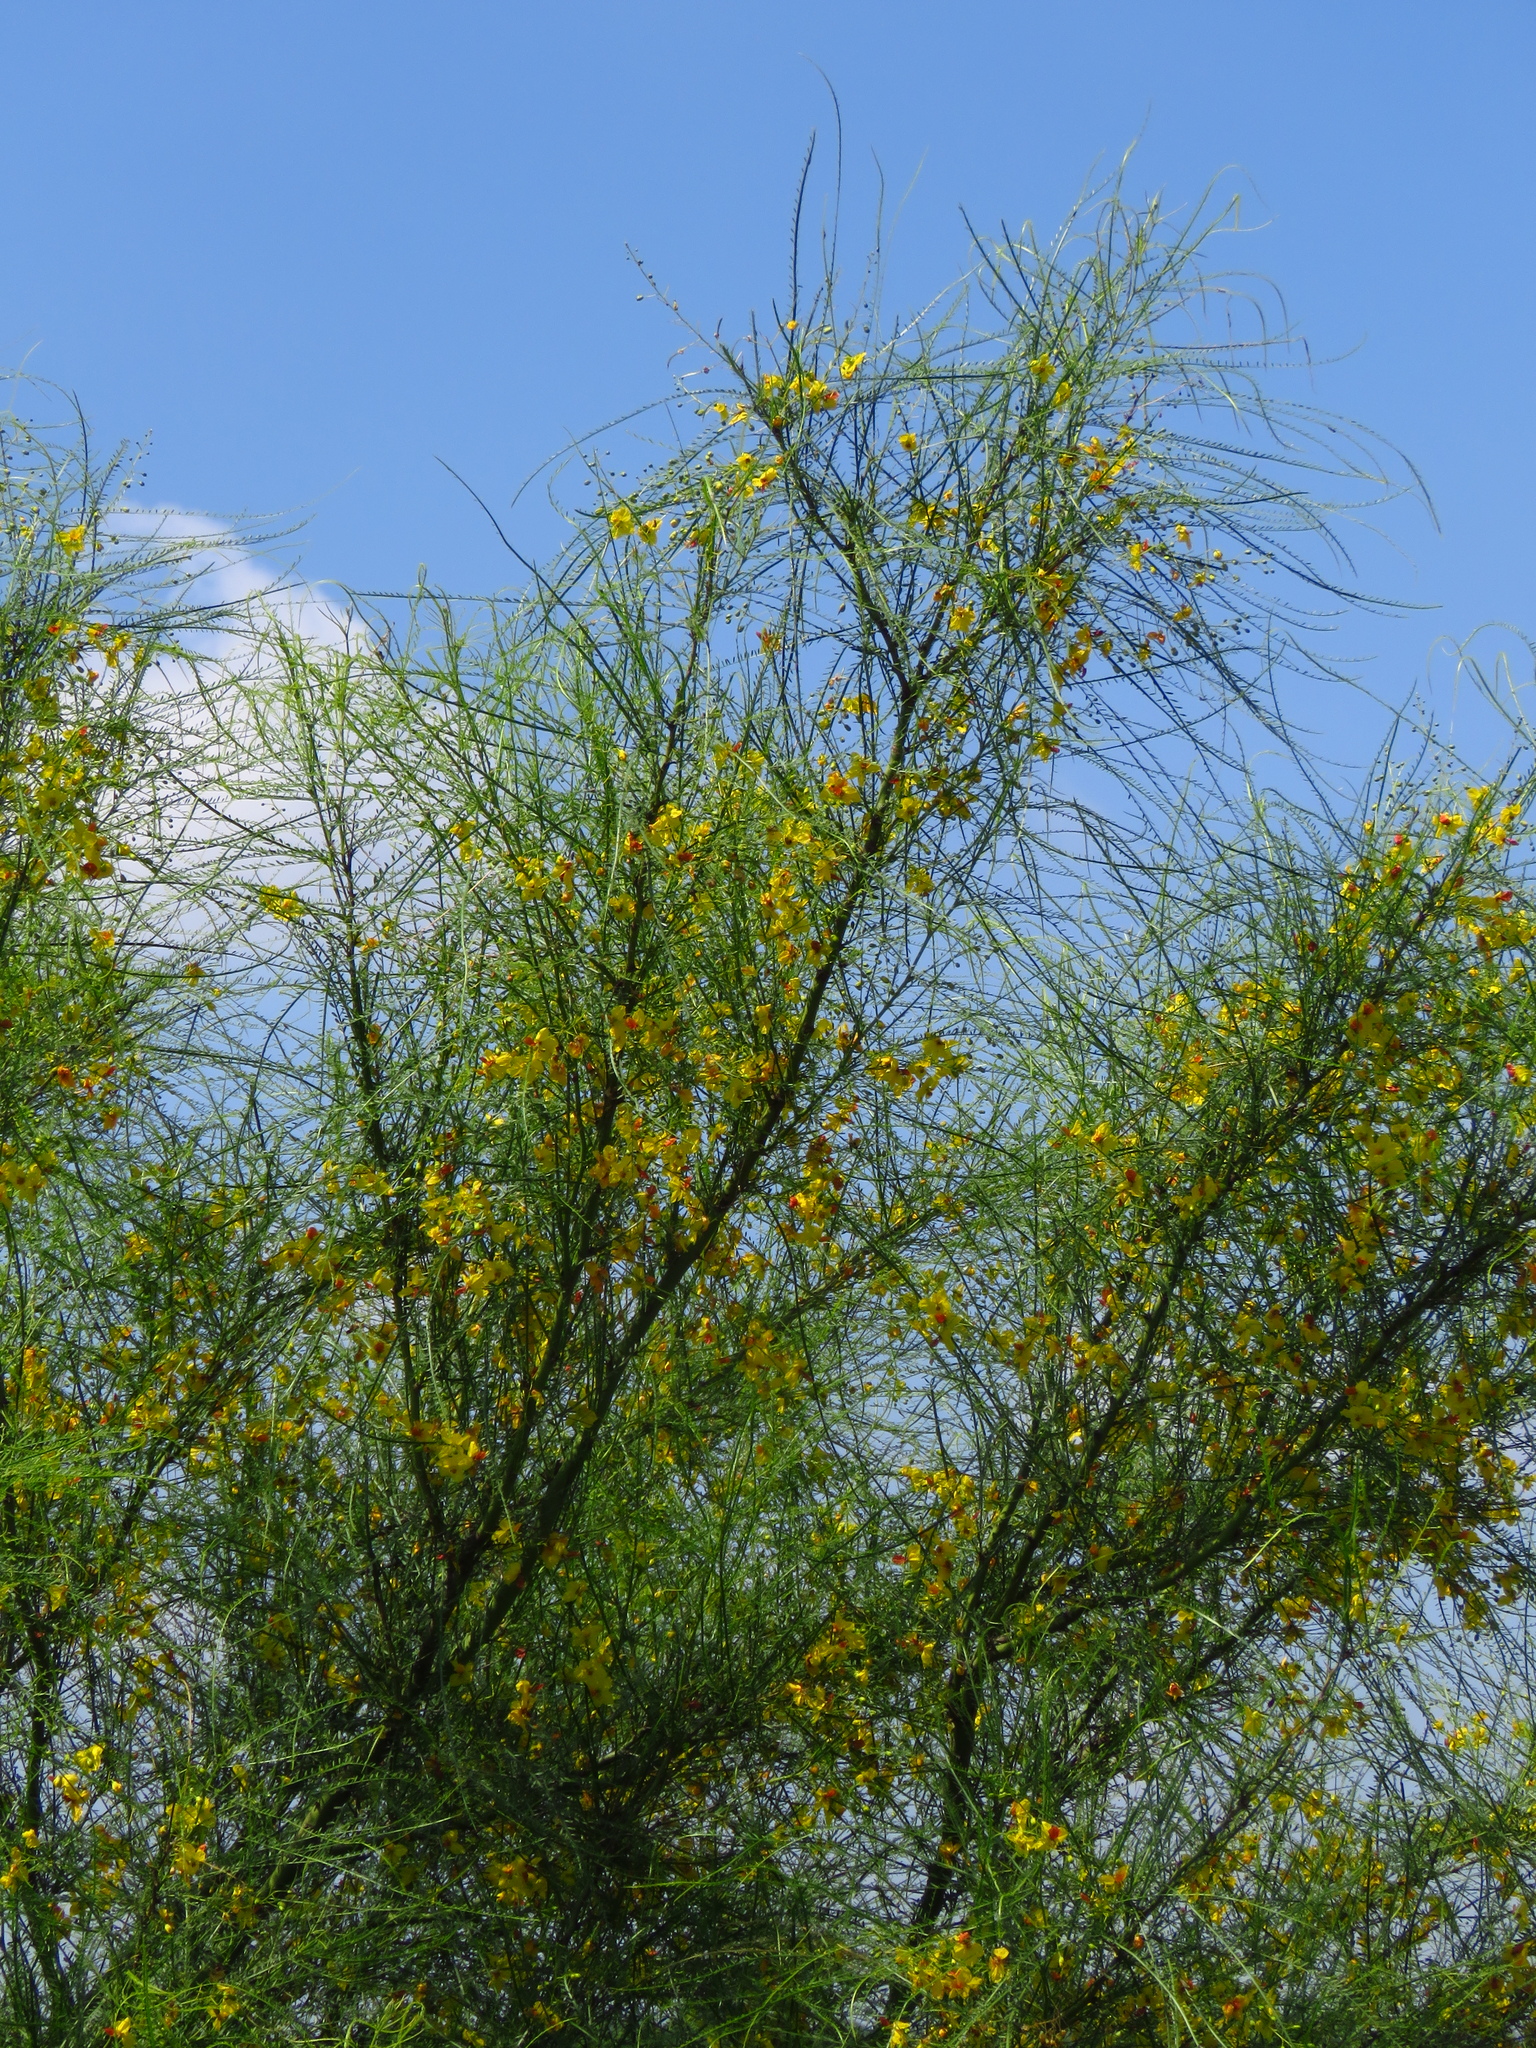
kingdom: Plantae
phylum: Tracheophyta
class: Magnoliopsida
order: Fabales
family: Fabaceae
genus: Parkinsonia
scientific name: Parkinsonia aculeata
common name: Jerusalem thorn
